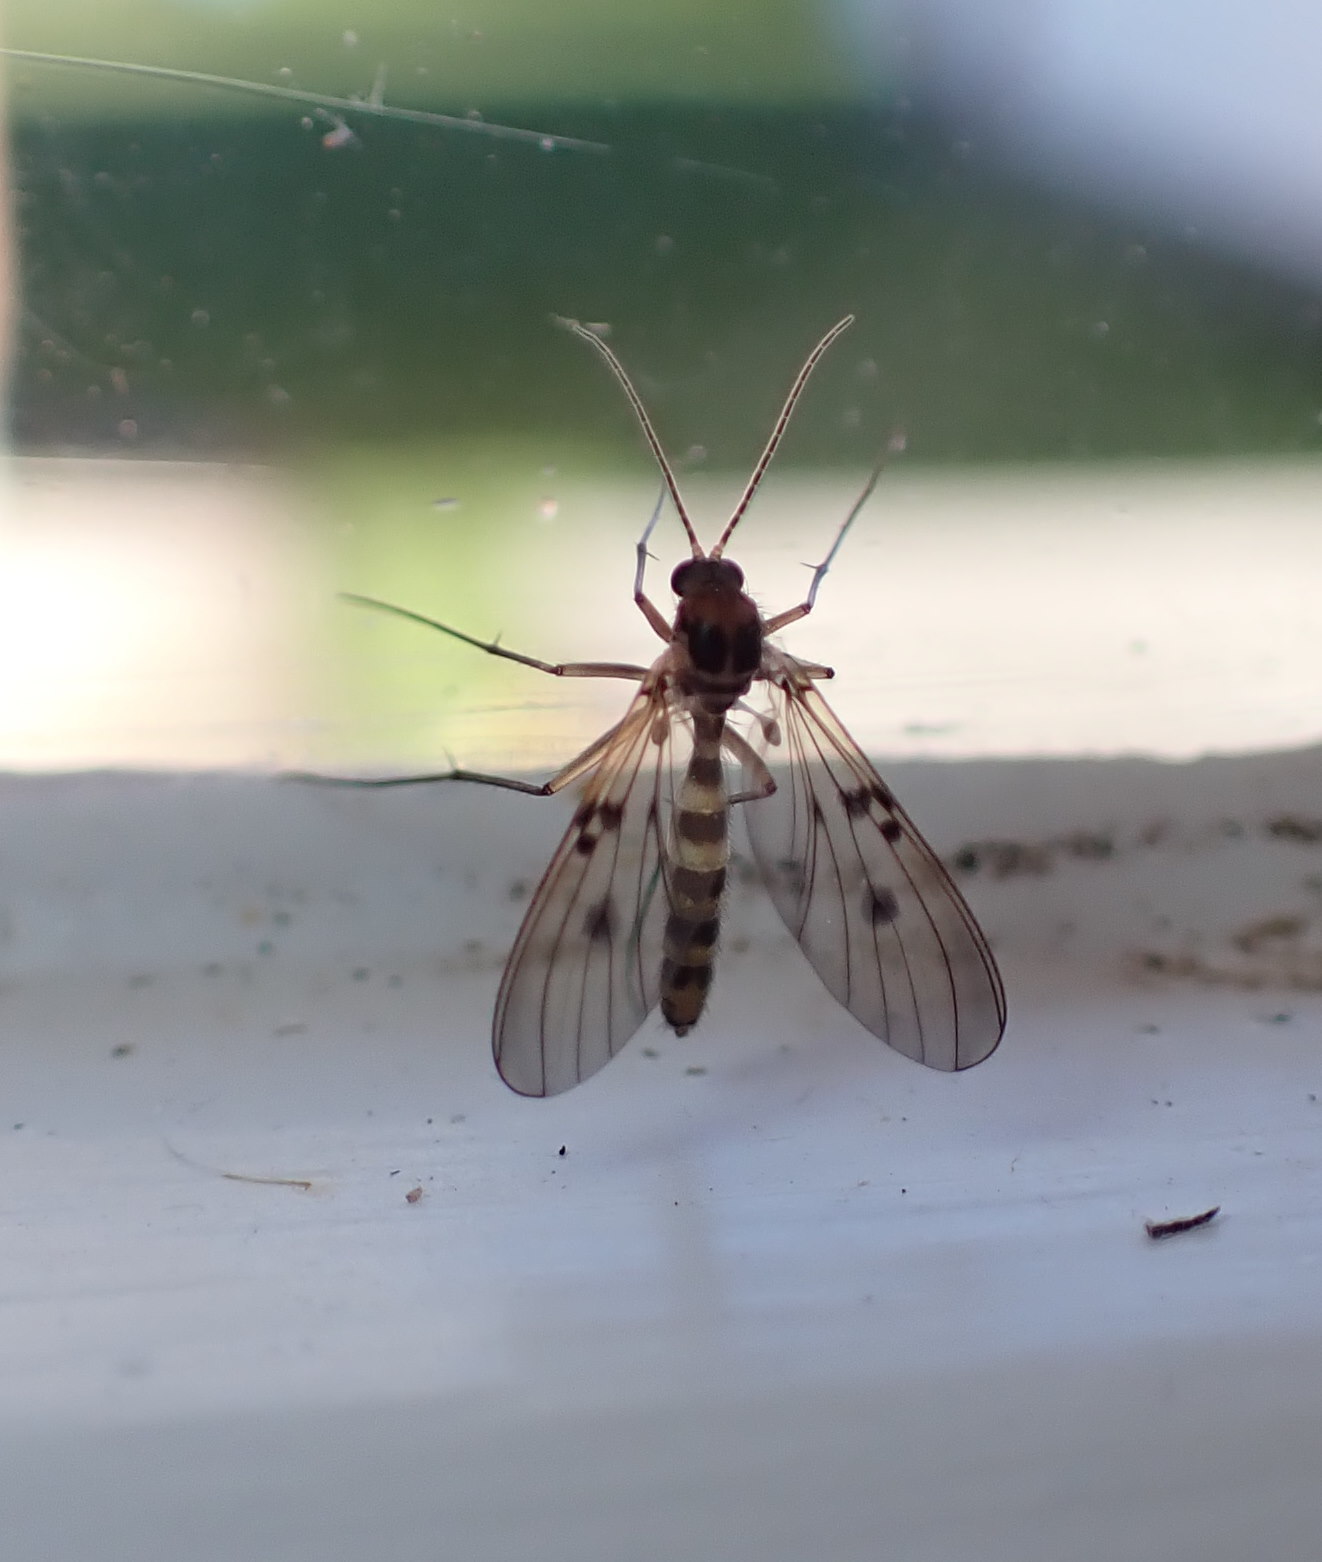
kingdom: Animalia
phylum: Arthropoda
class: Insecta
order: Diptera
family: Mycetophilidae
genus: Mycomya
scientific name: Mycomya quadrimaculata
